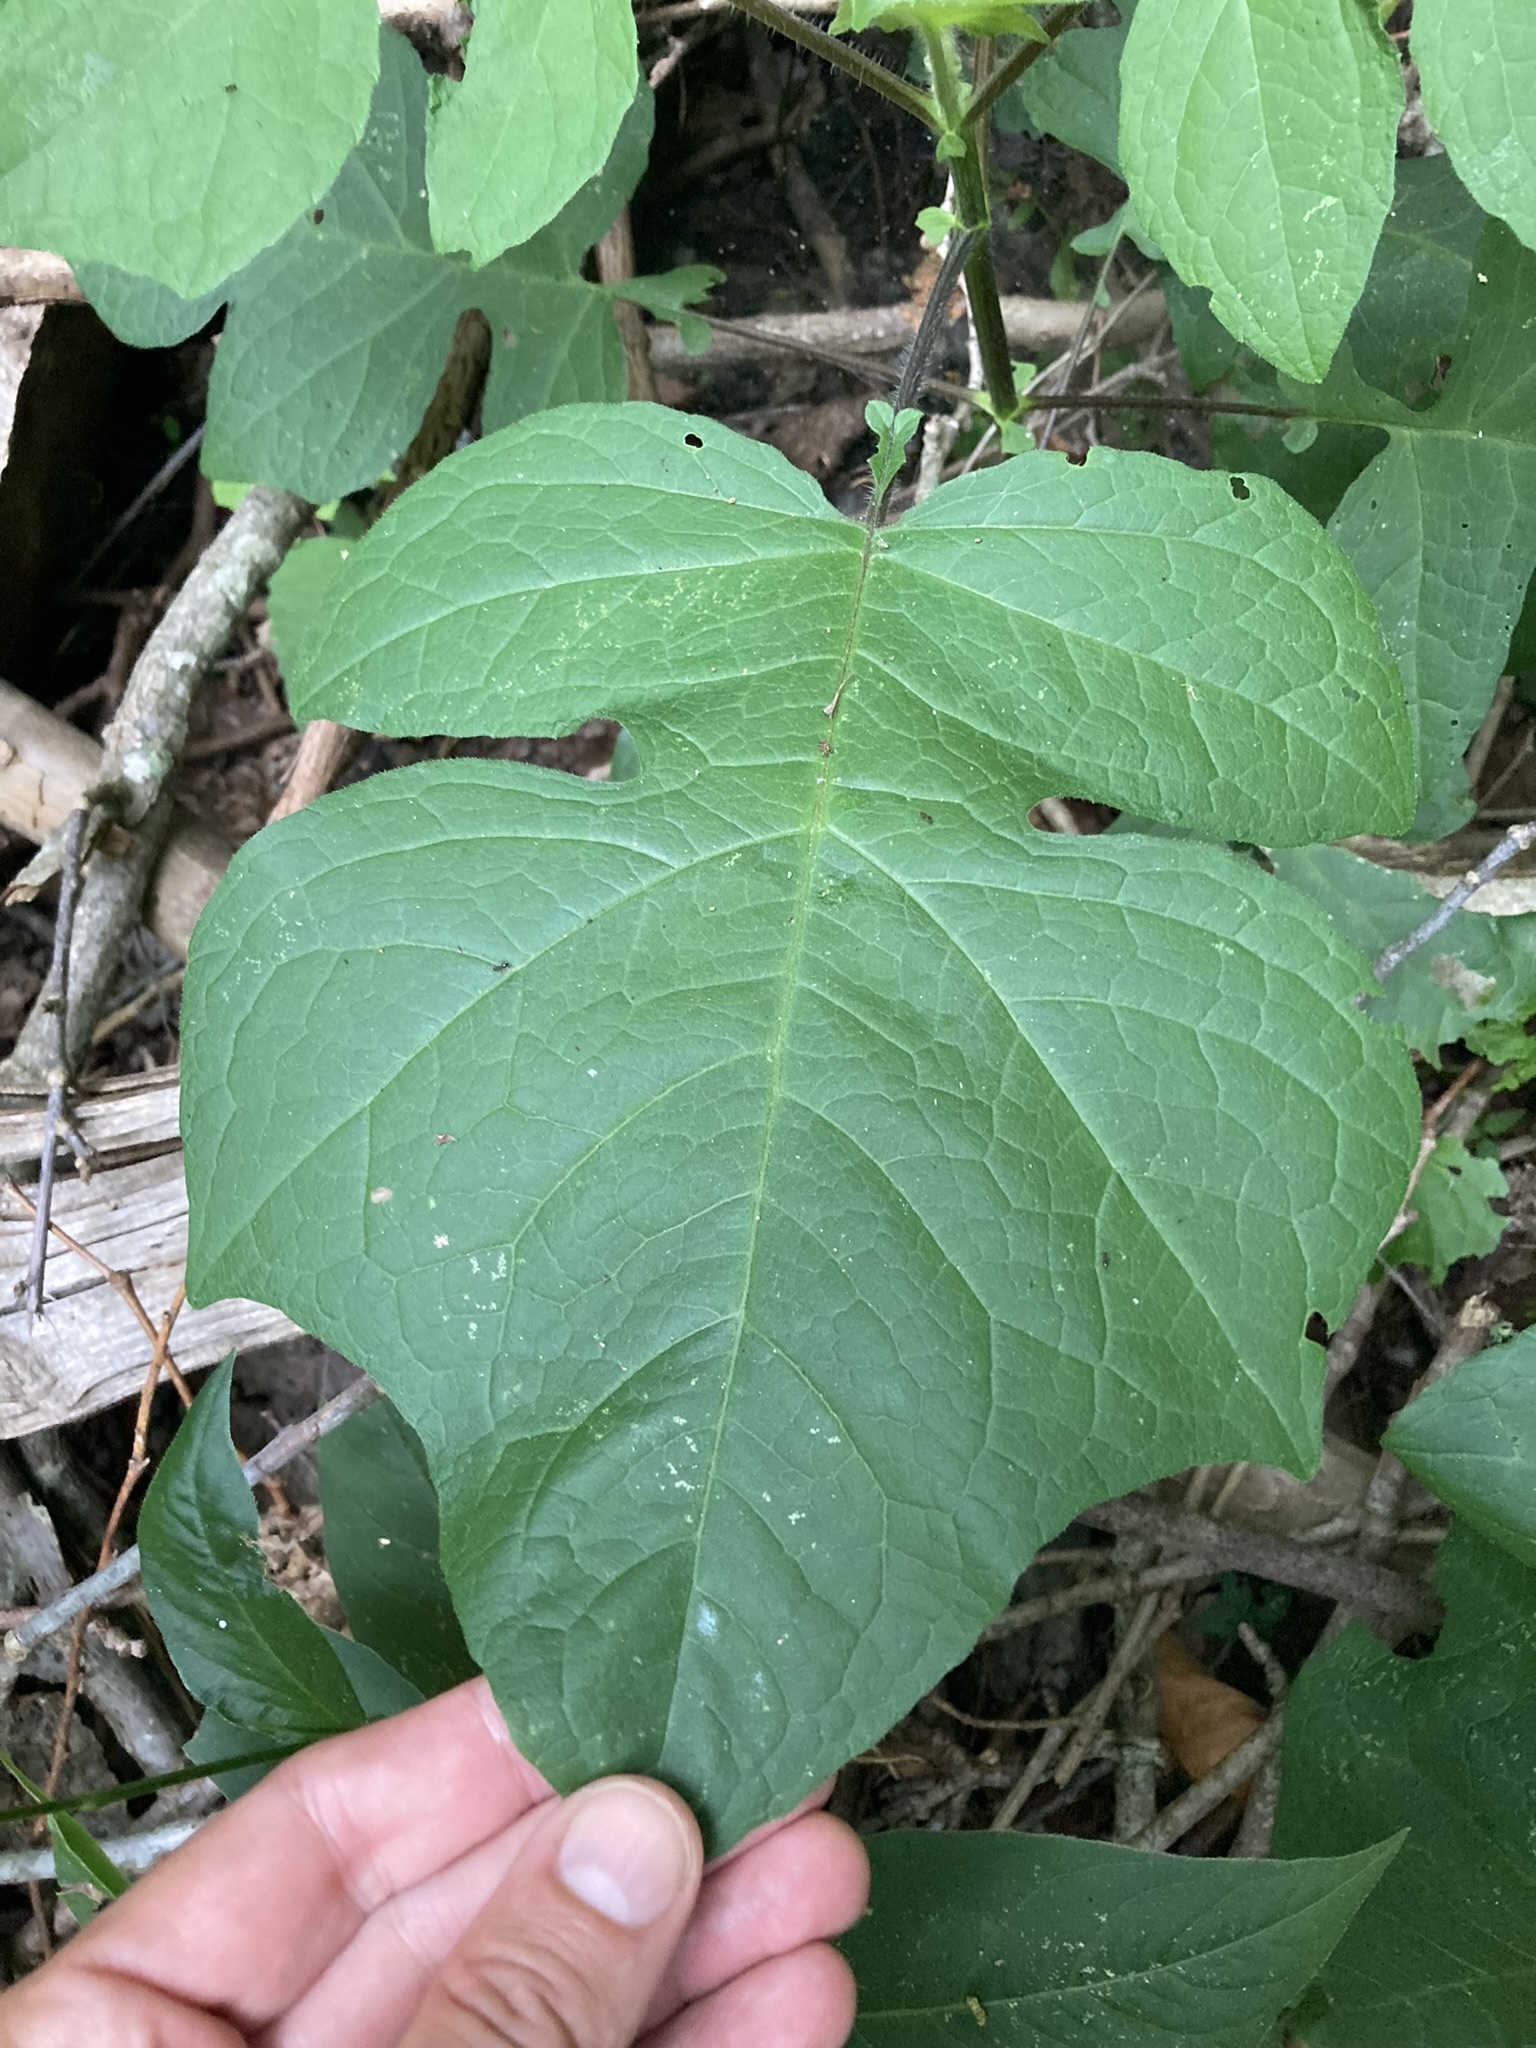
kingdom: Plantae
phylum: Tracheophyta
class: Magnoliopsida
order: Asterales
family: Asteraceae
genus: Polymnia
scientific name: Polymnia canadensis
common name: Pale-flowered leafcup
